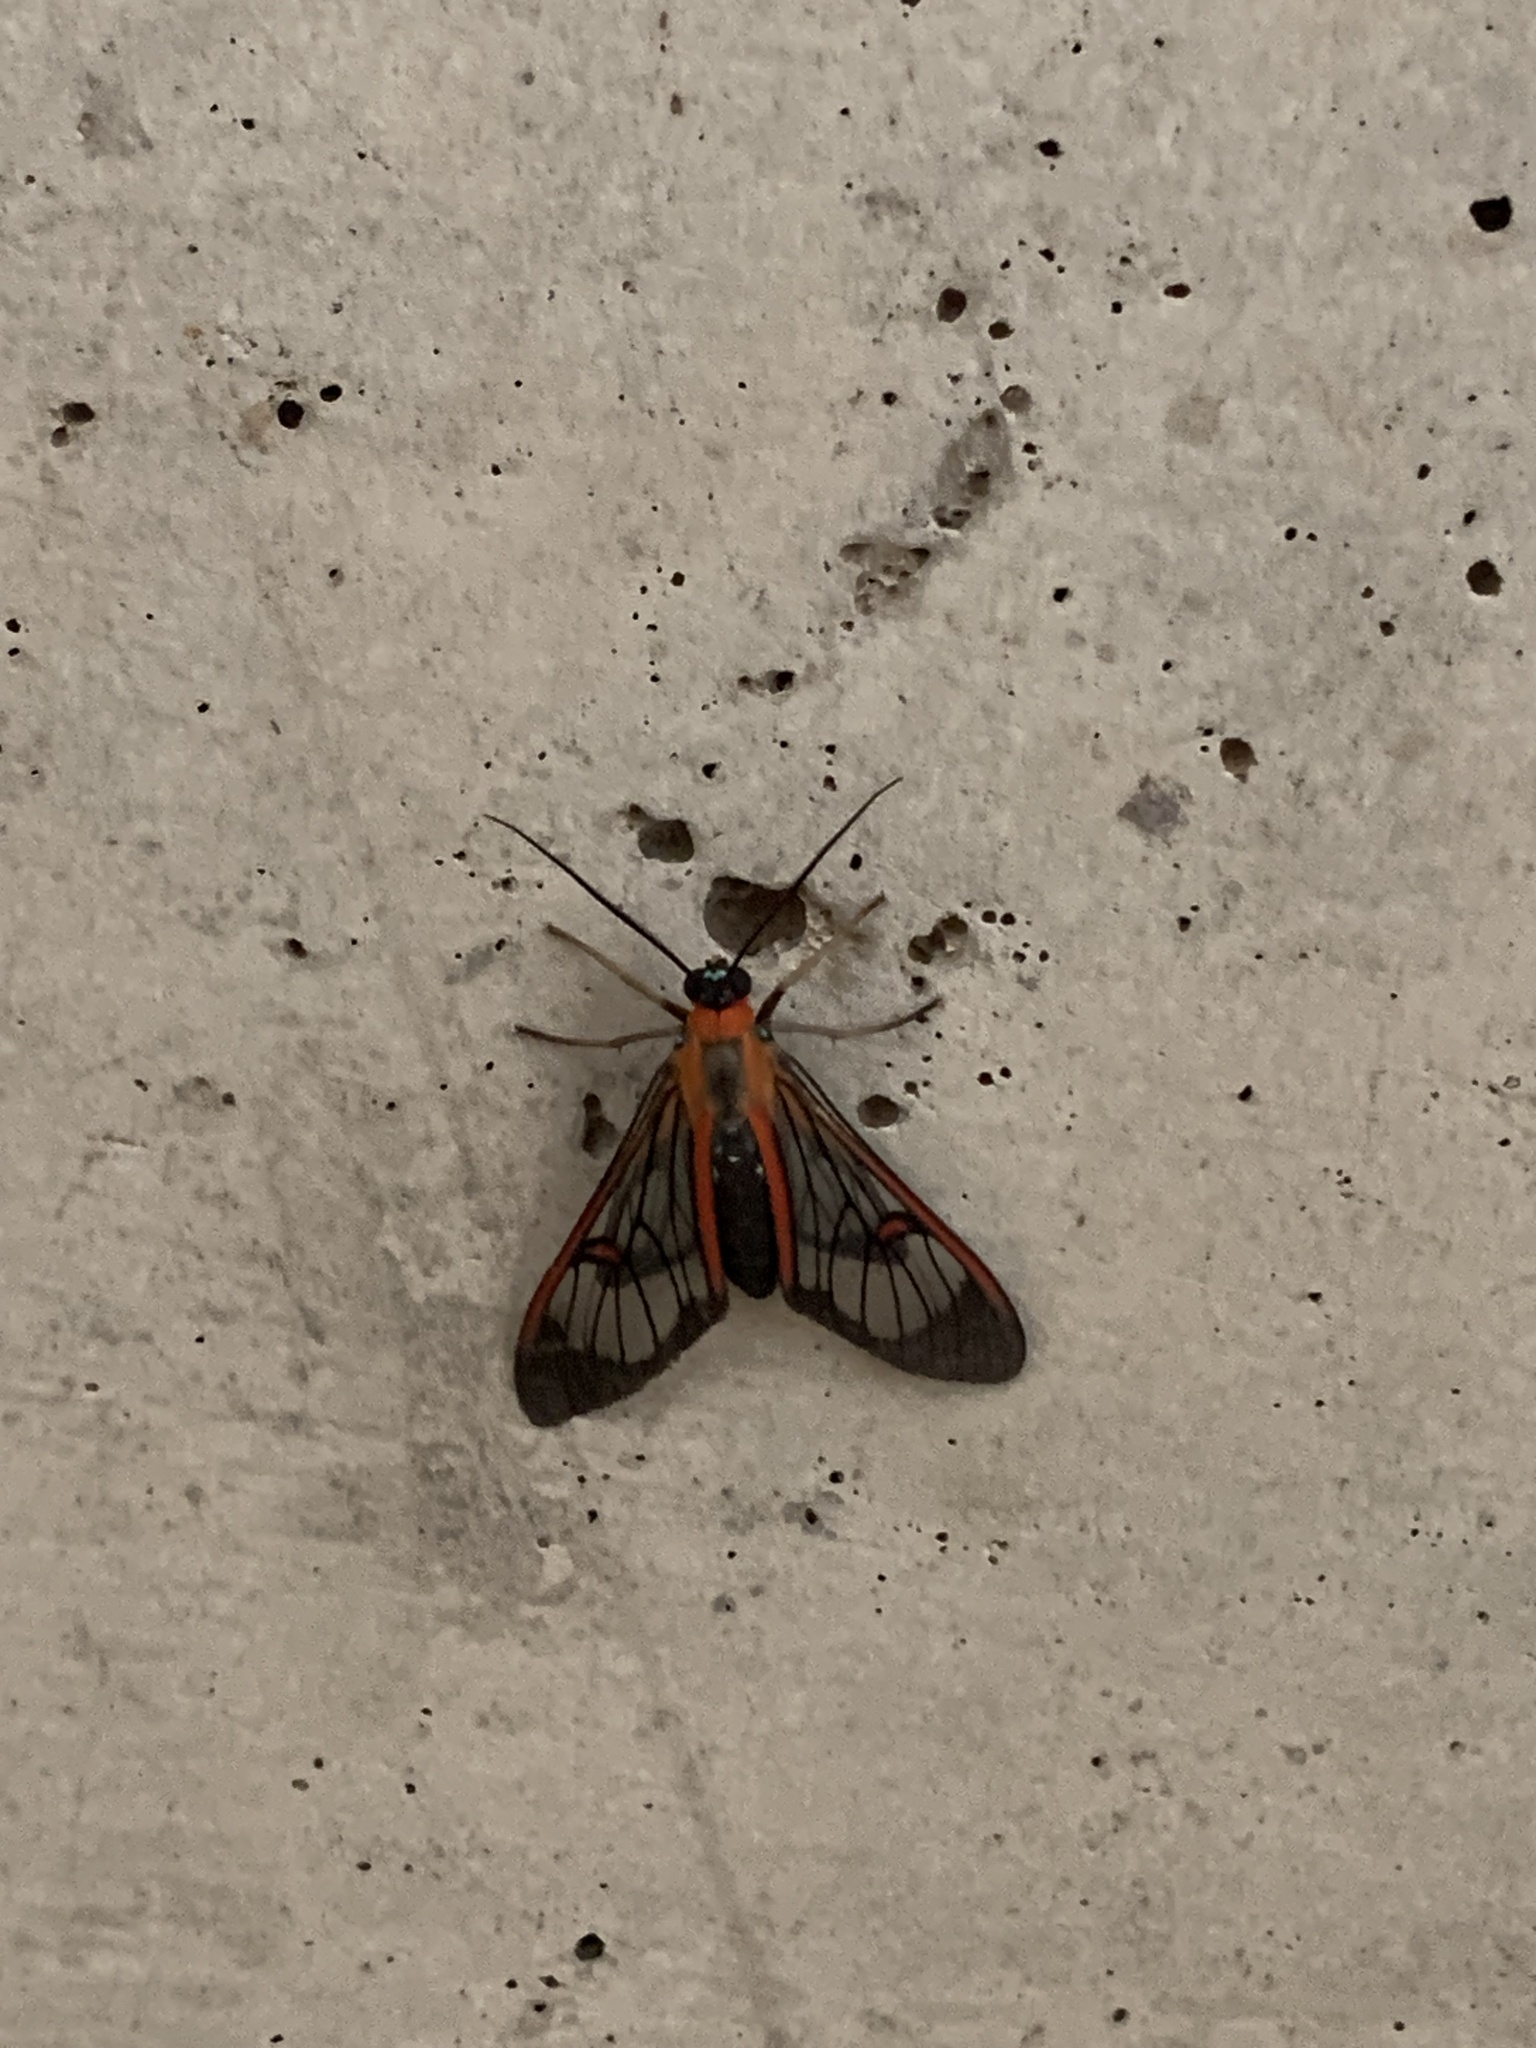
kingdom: Animalia
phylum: Arthropoda
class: Insecta
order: Lepidoptera
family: Erebidae
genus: Lepidoneiva
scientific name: Lepidoneiva erubescens
